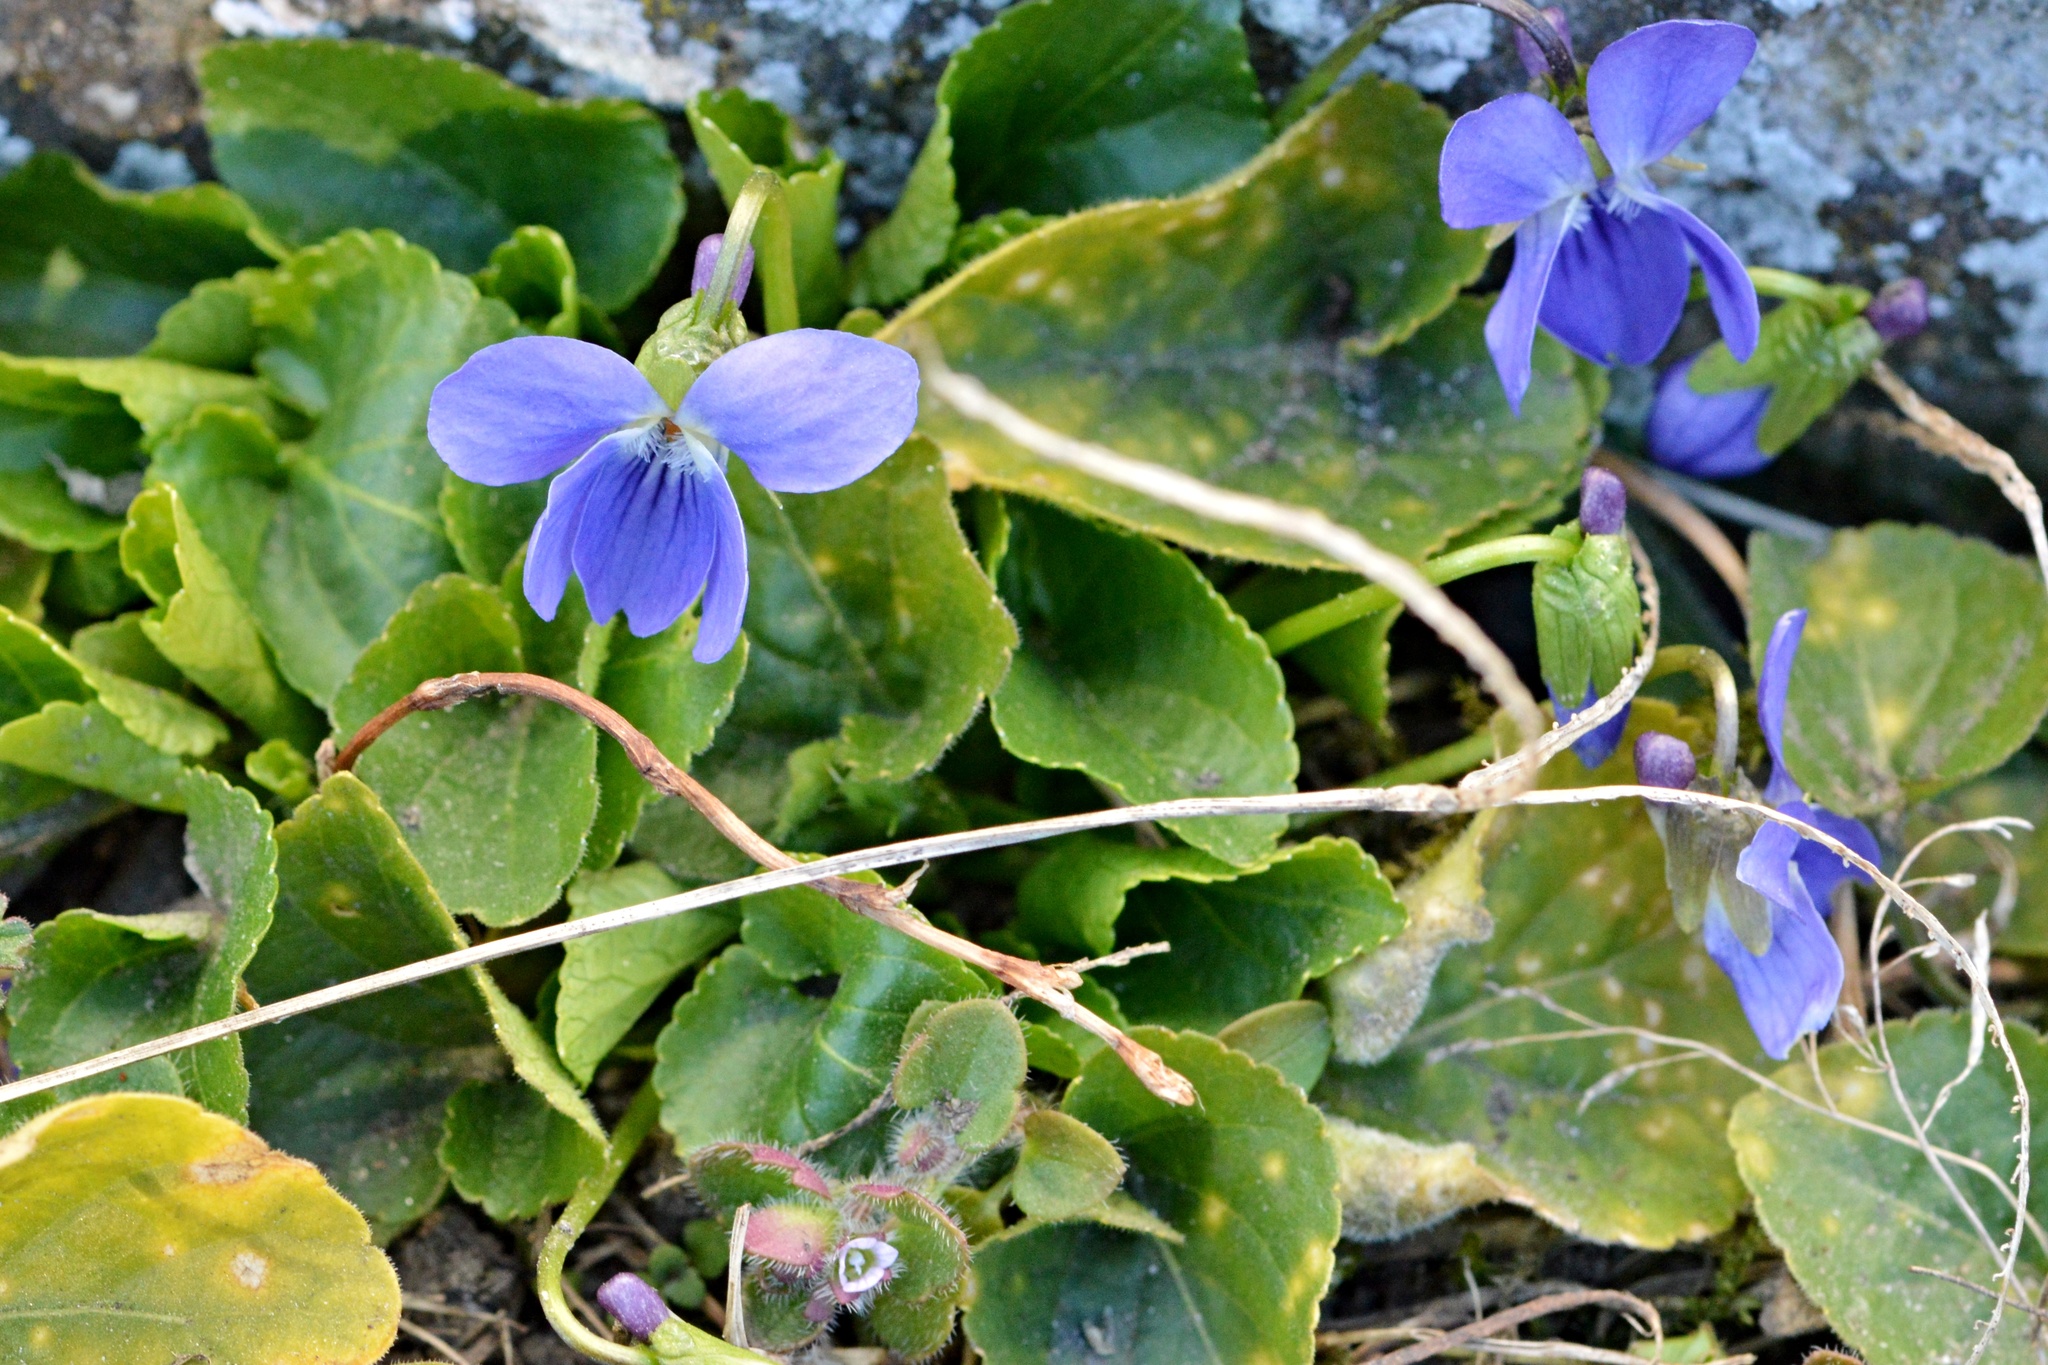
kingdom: Plantae
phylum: Tracheophyta
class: Magnoliopsida
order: Malpighiales
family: Violaceae
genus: Viola
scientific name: Viola odorata
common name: Sweet violet
